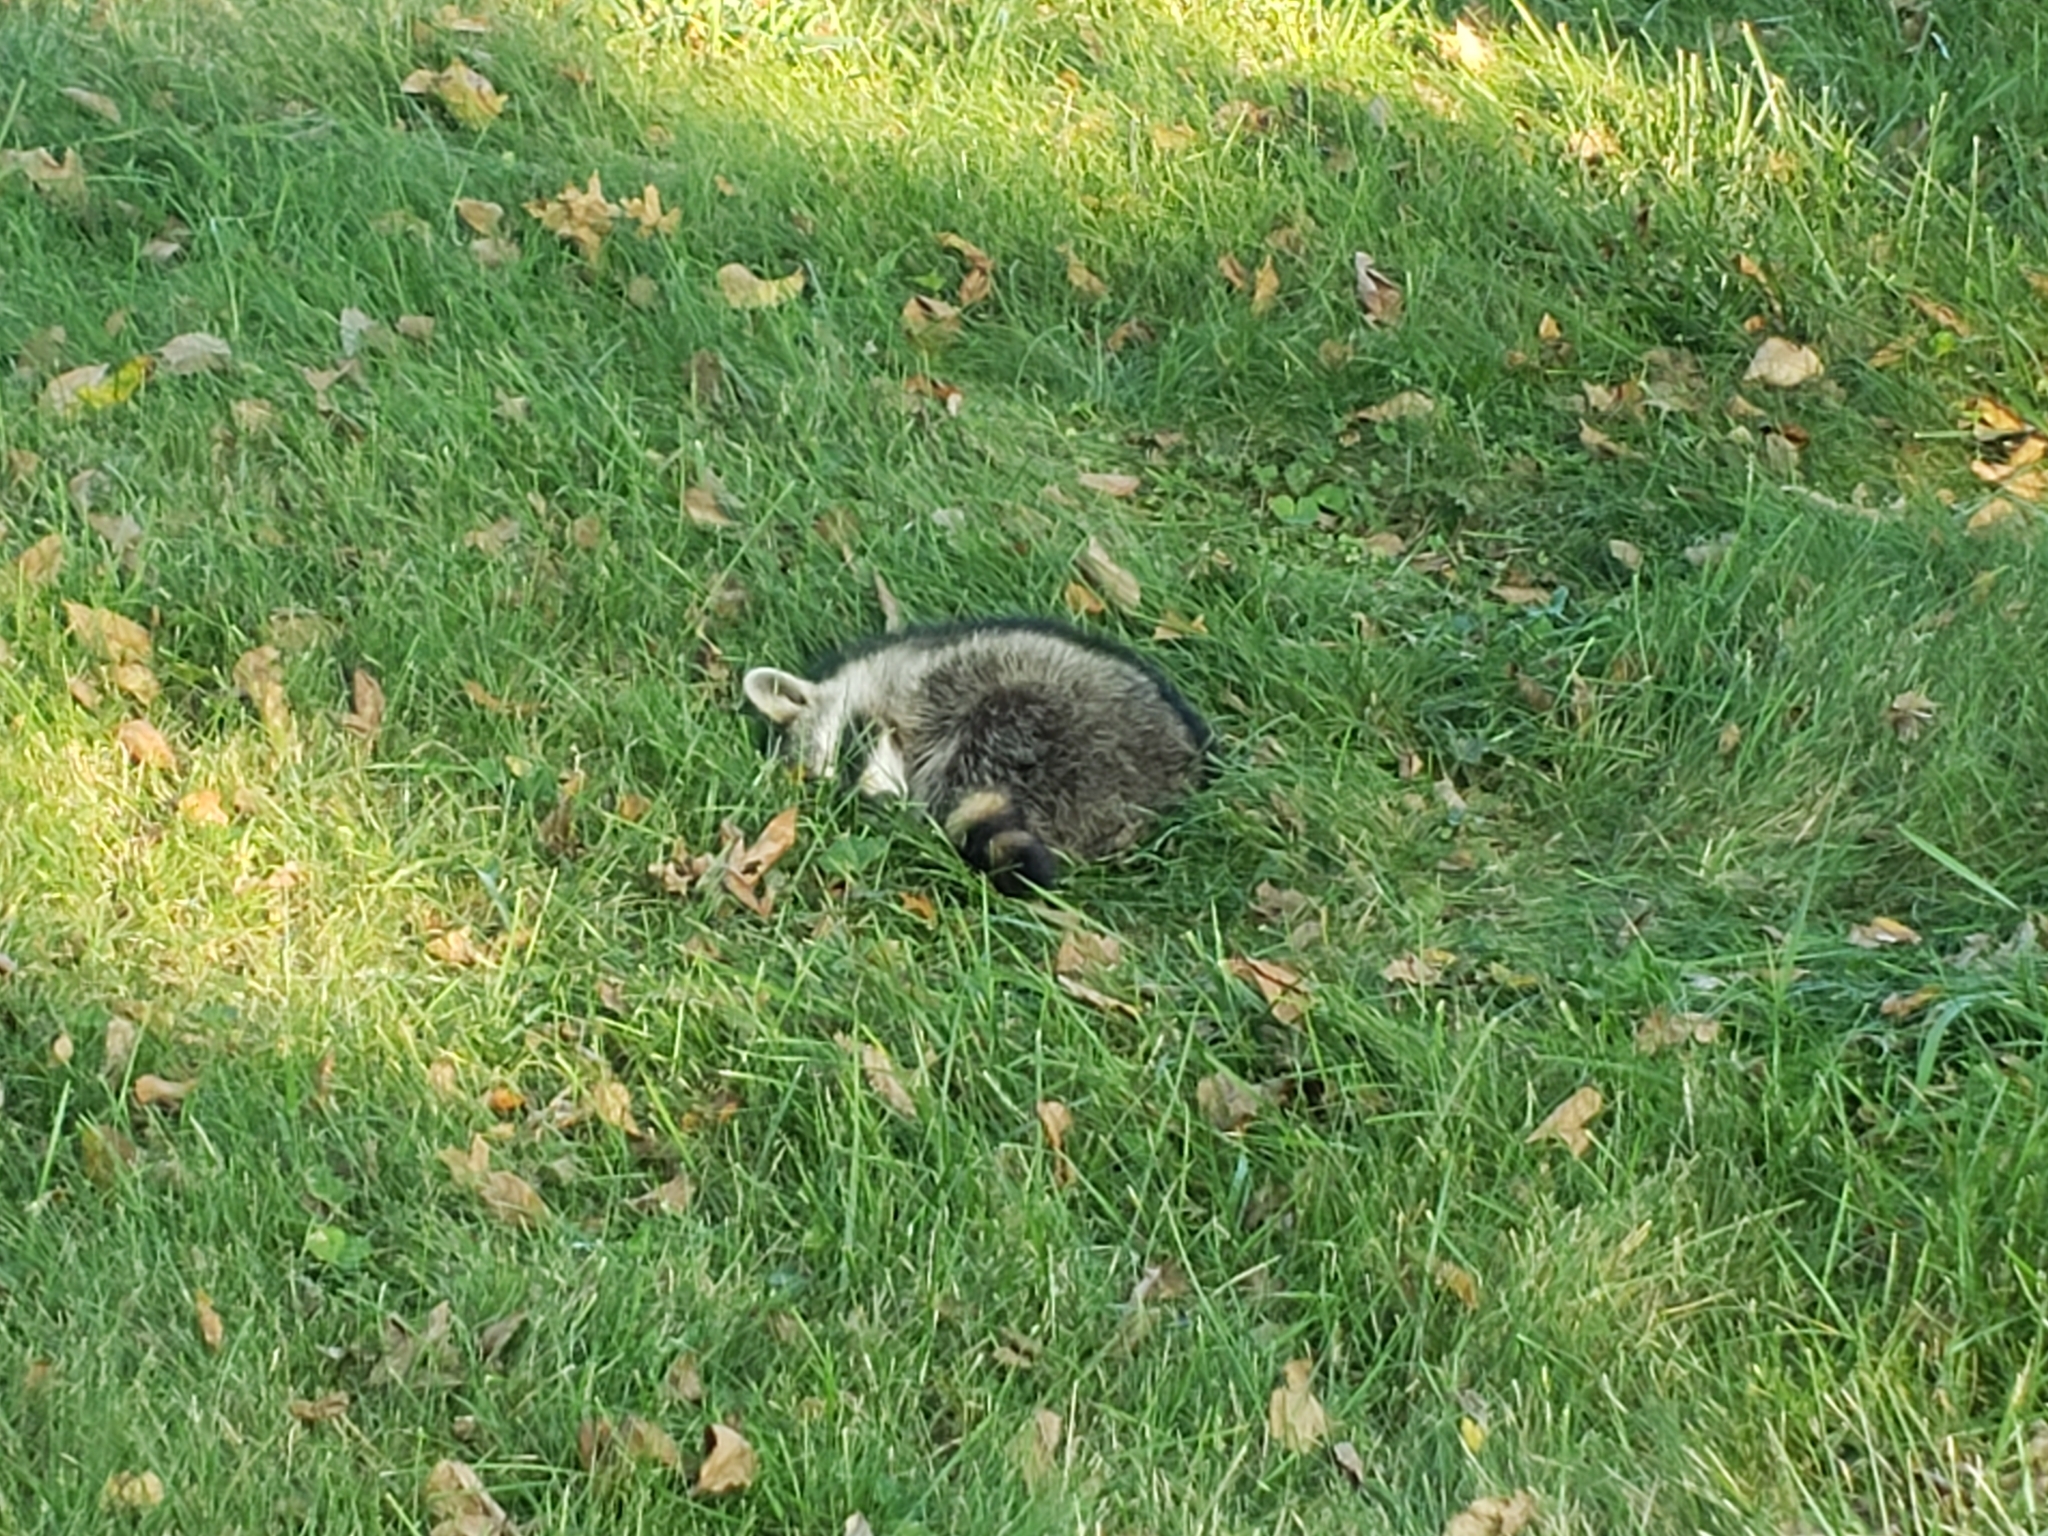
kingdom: Animalia
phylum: Chordata
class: Mammalia
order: Carnivora
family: Procyonidae
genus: Procyon
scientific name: Procyon lotor
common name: Raccoon
